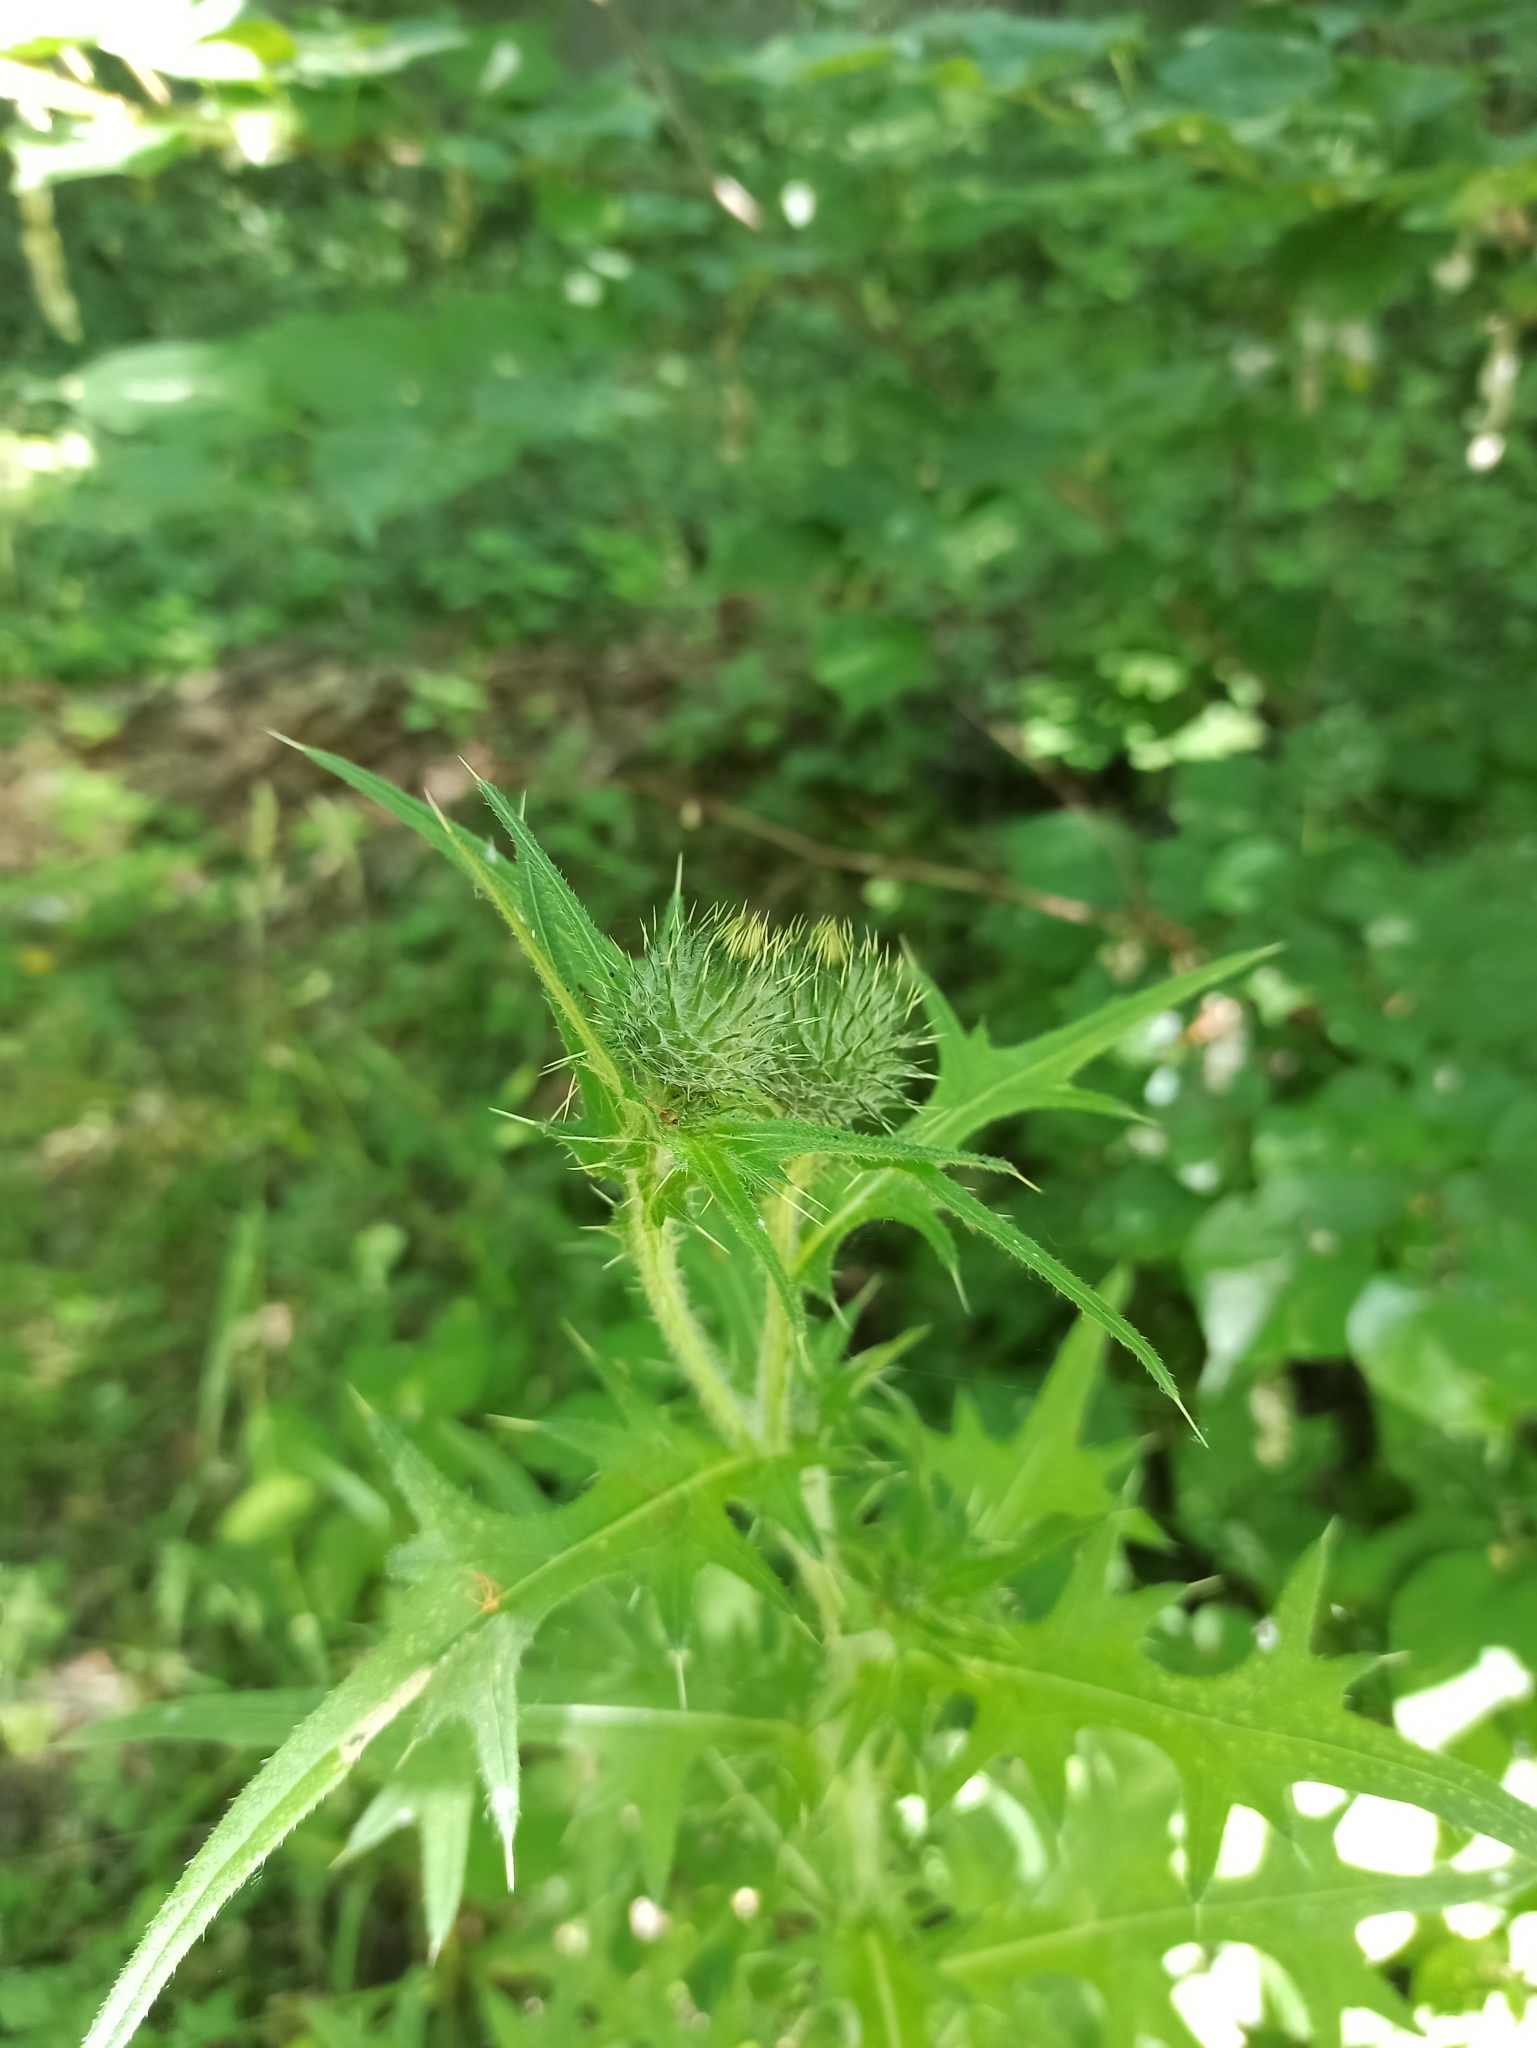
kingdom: Plantae
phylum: Tracheophyta
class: Magnoliopsida
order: Asterales
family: Asteraceae
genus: Cirsium
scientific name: Cirsium vulgare
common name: Bull thistle
